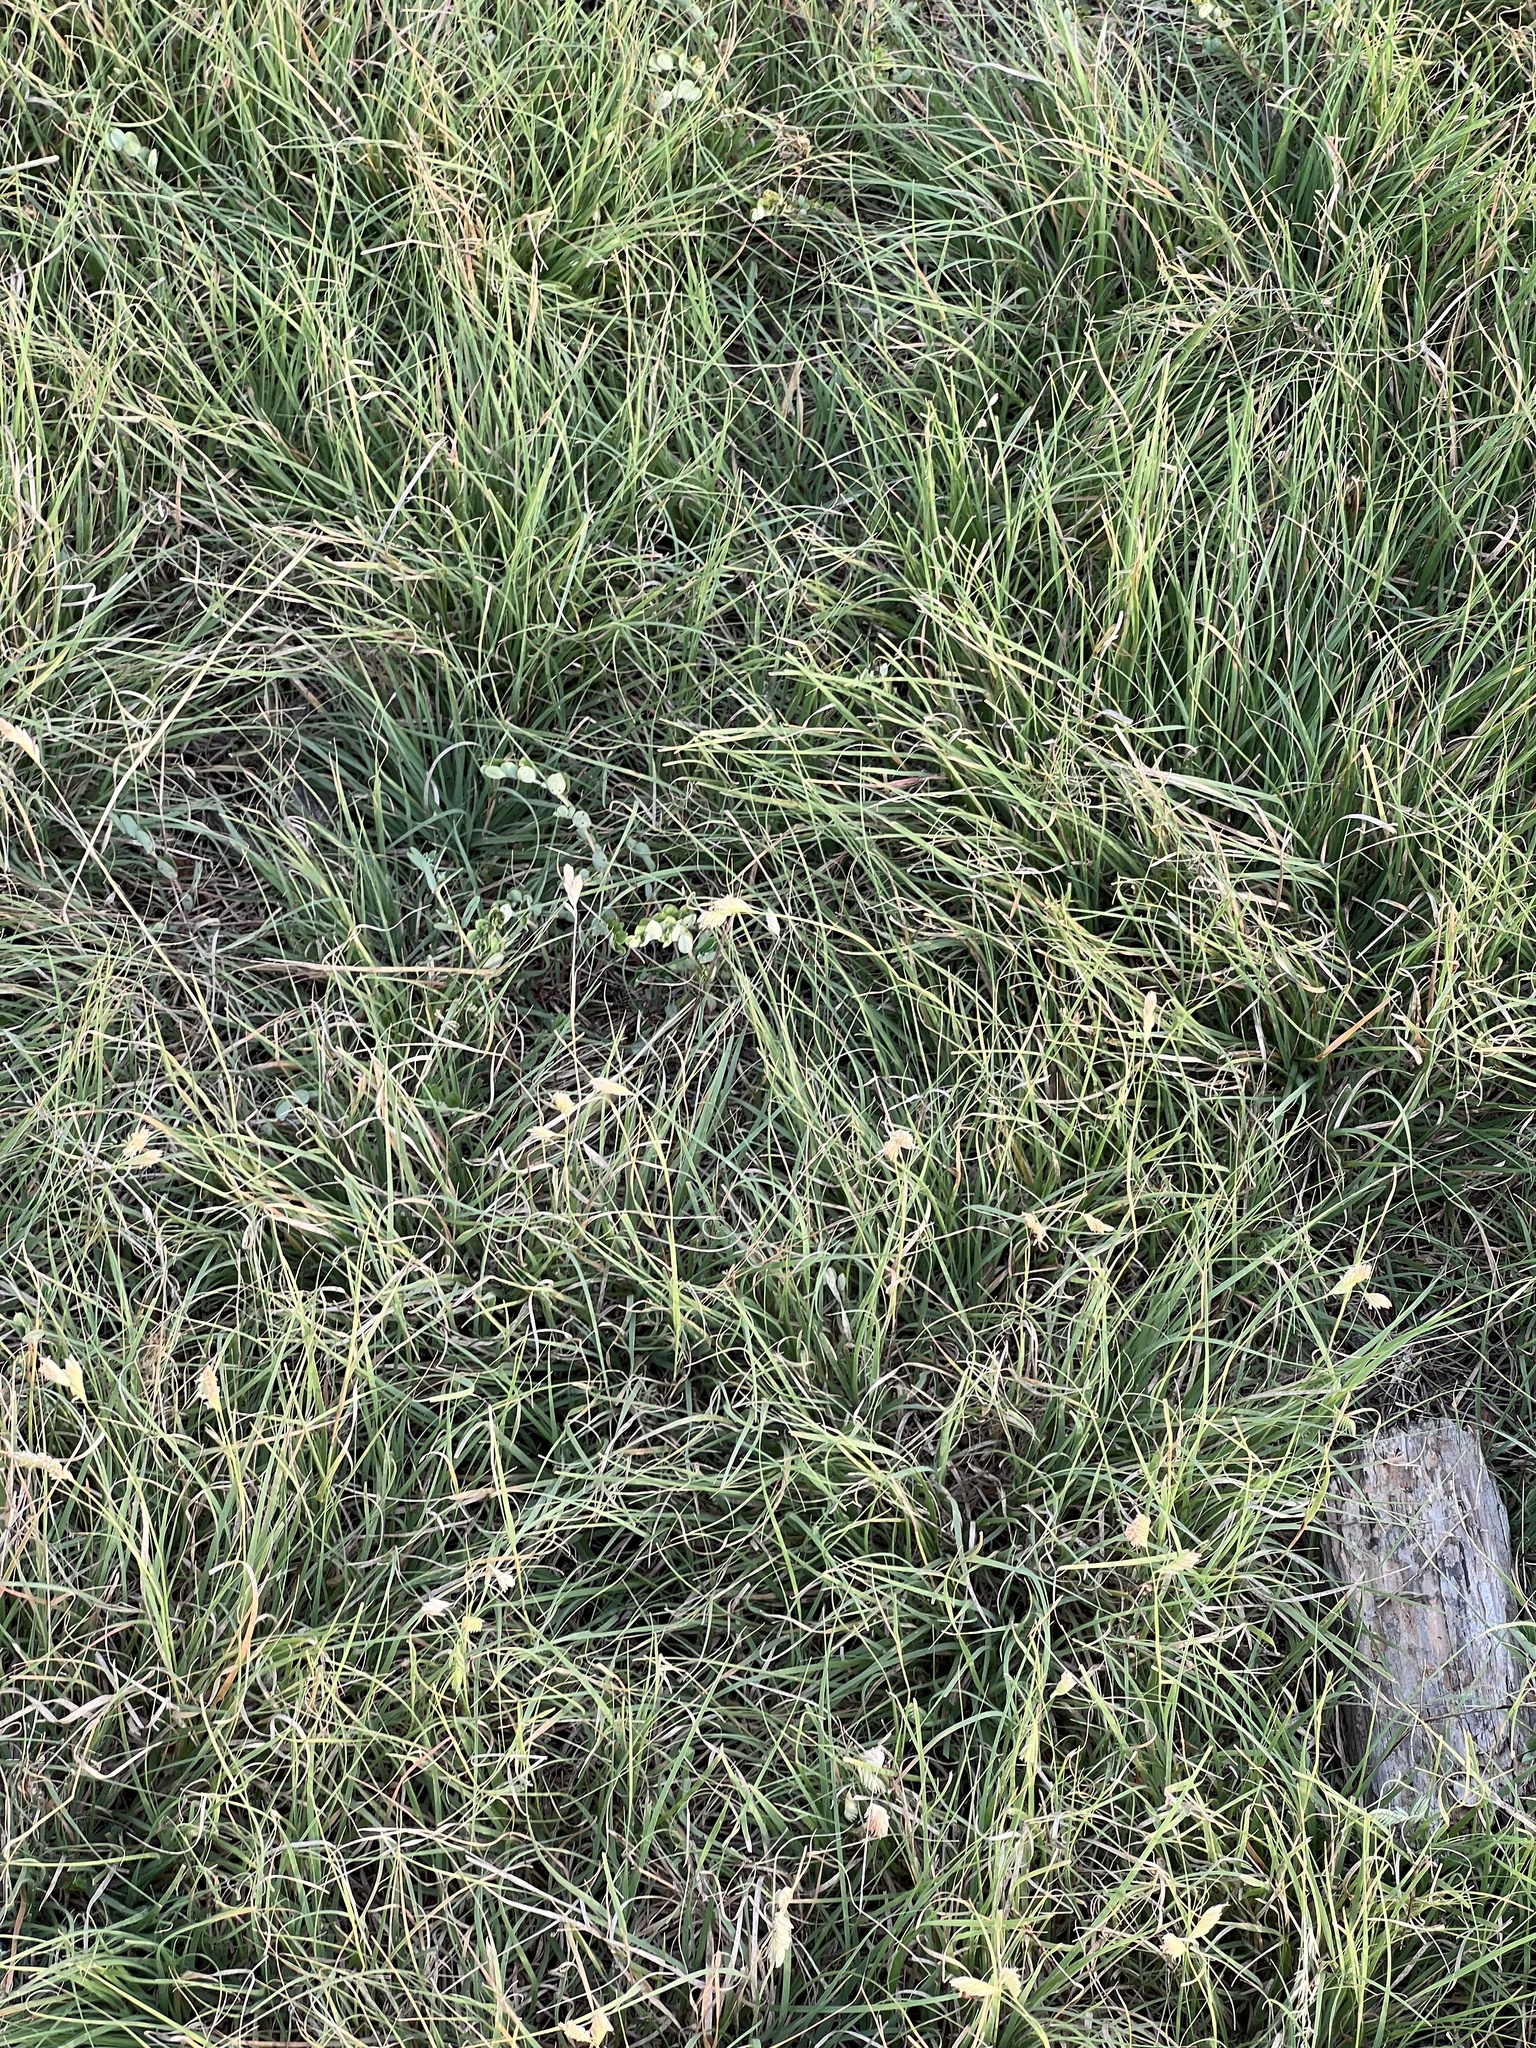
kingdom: Plantae
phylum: Tracheophyta
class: Liliopsida
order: Poales
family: Poaceae
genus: Bouteloua
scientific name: Bouteloua dactyloides
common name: Buffalo grass
